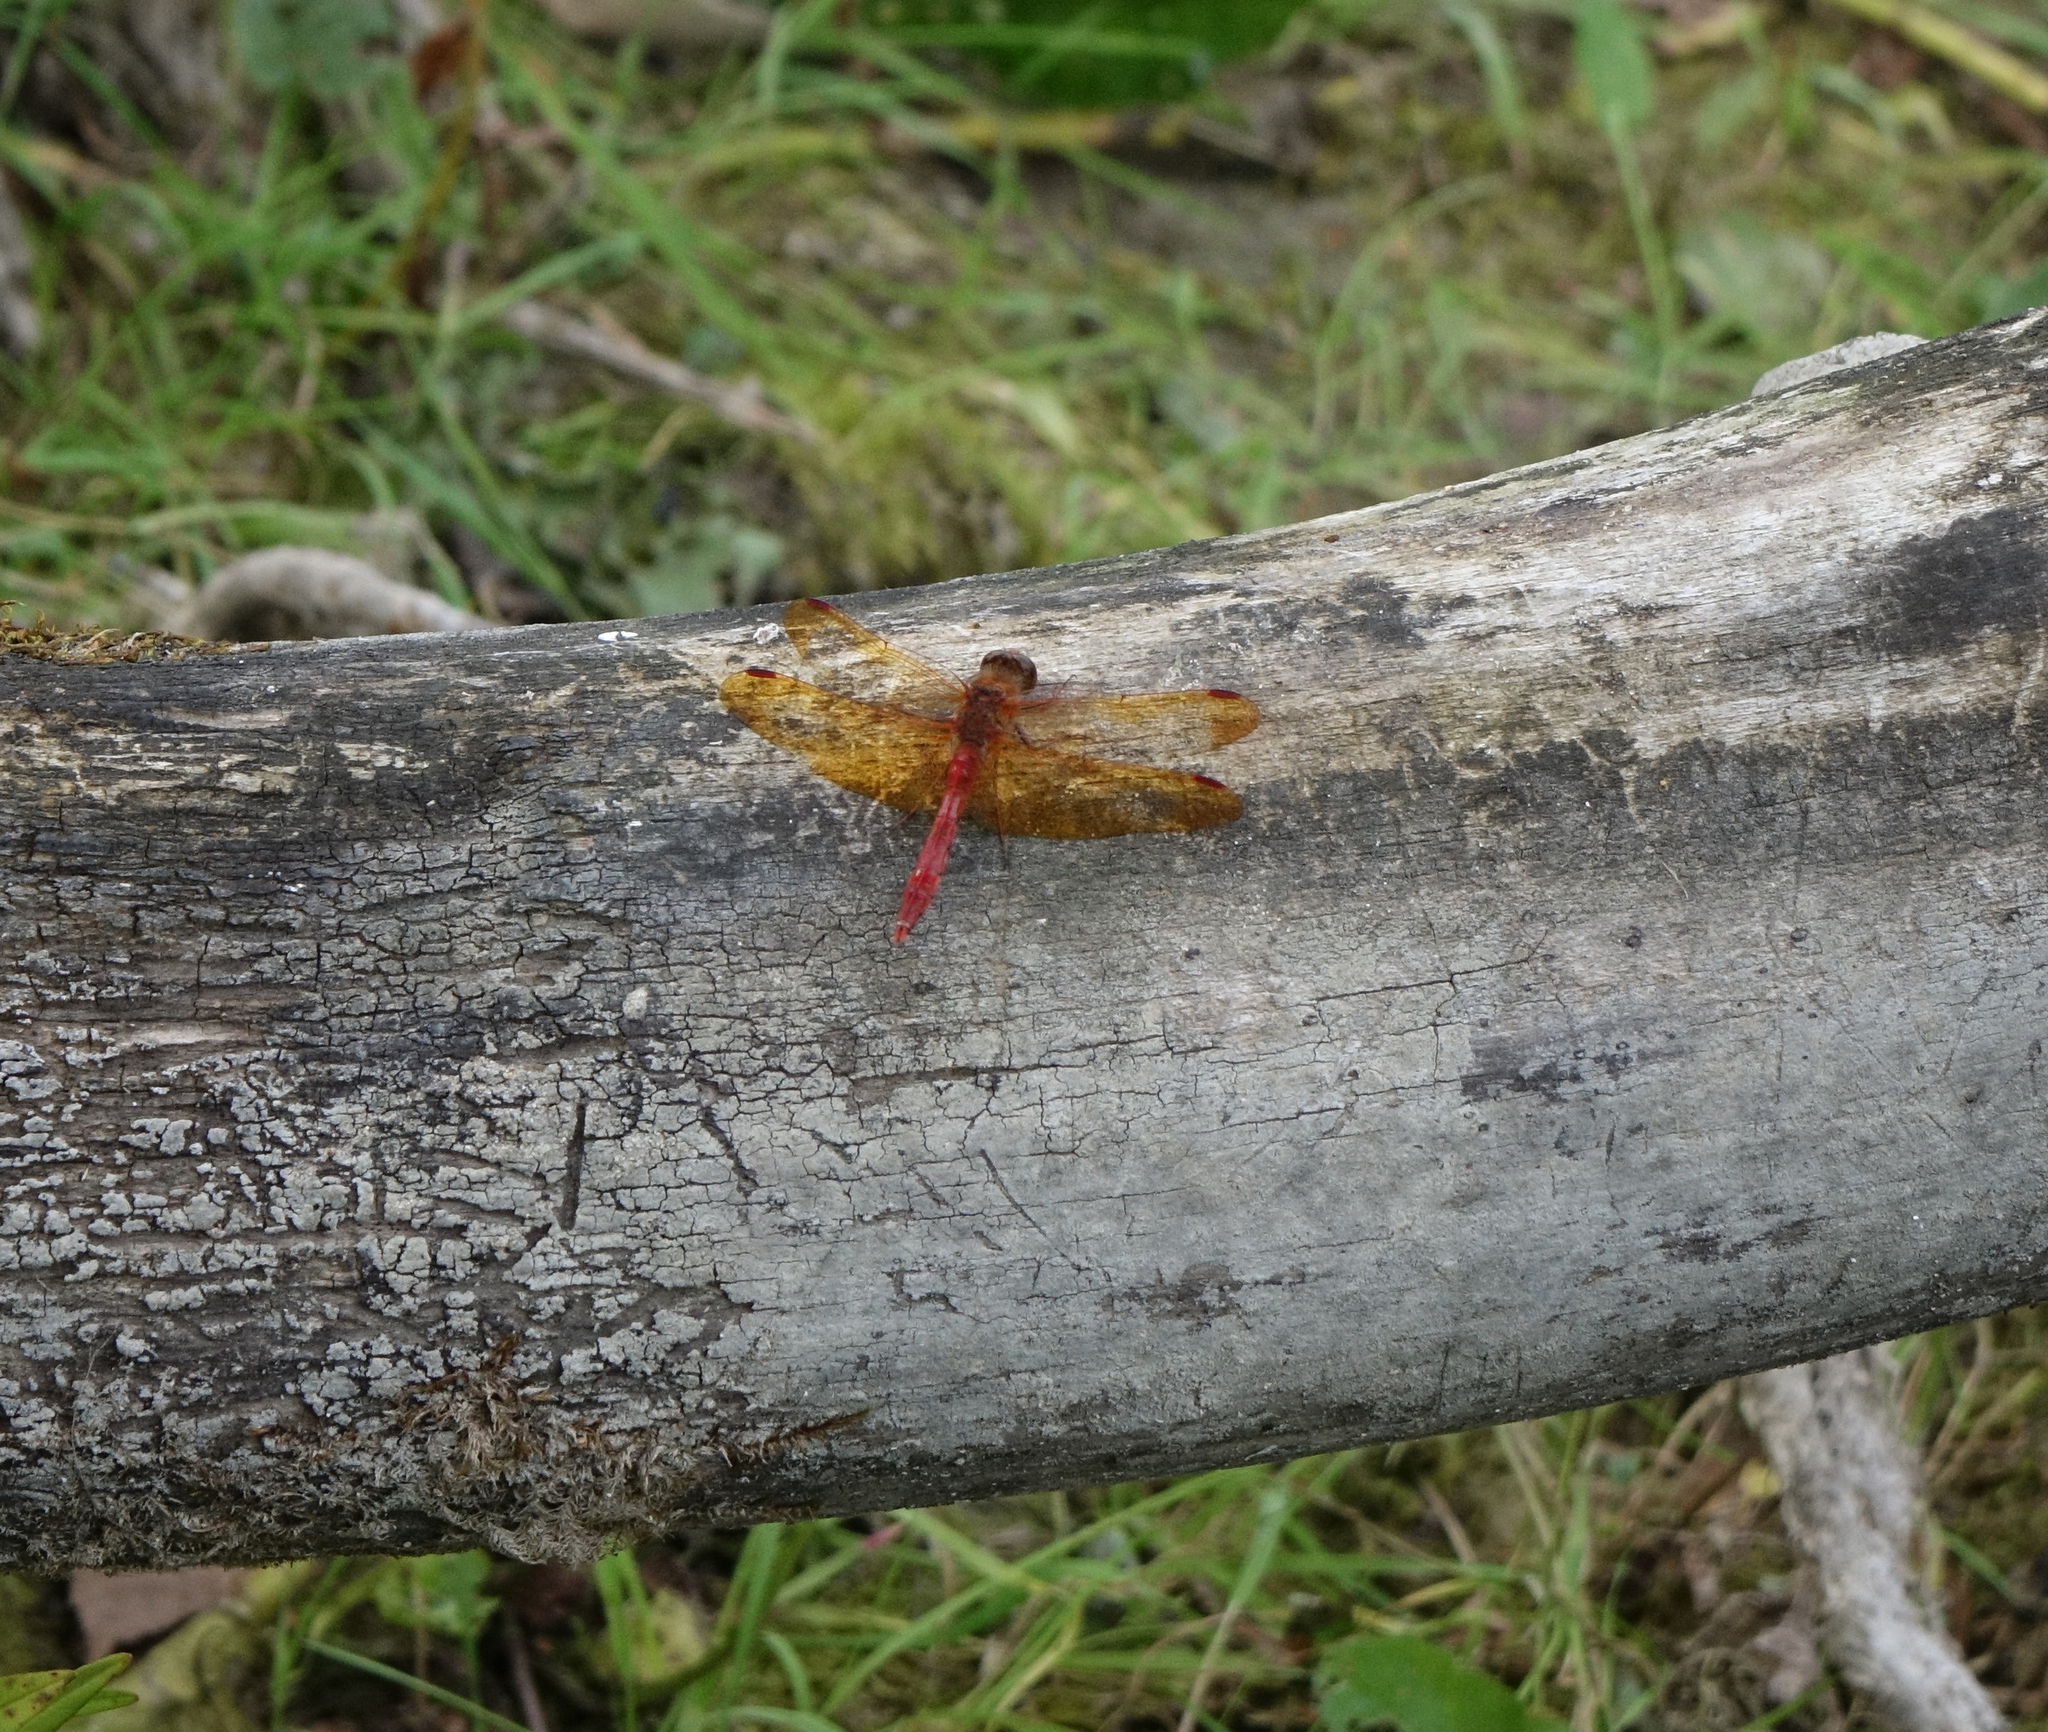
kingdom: Animalia
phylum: Arthropoda
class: Insecta
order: Odonata
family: Libellulidae
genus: Sympetrum
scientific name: Sympetrum croceolum
